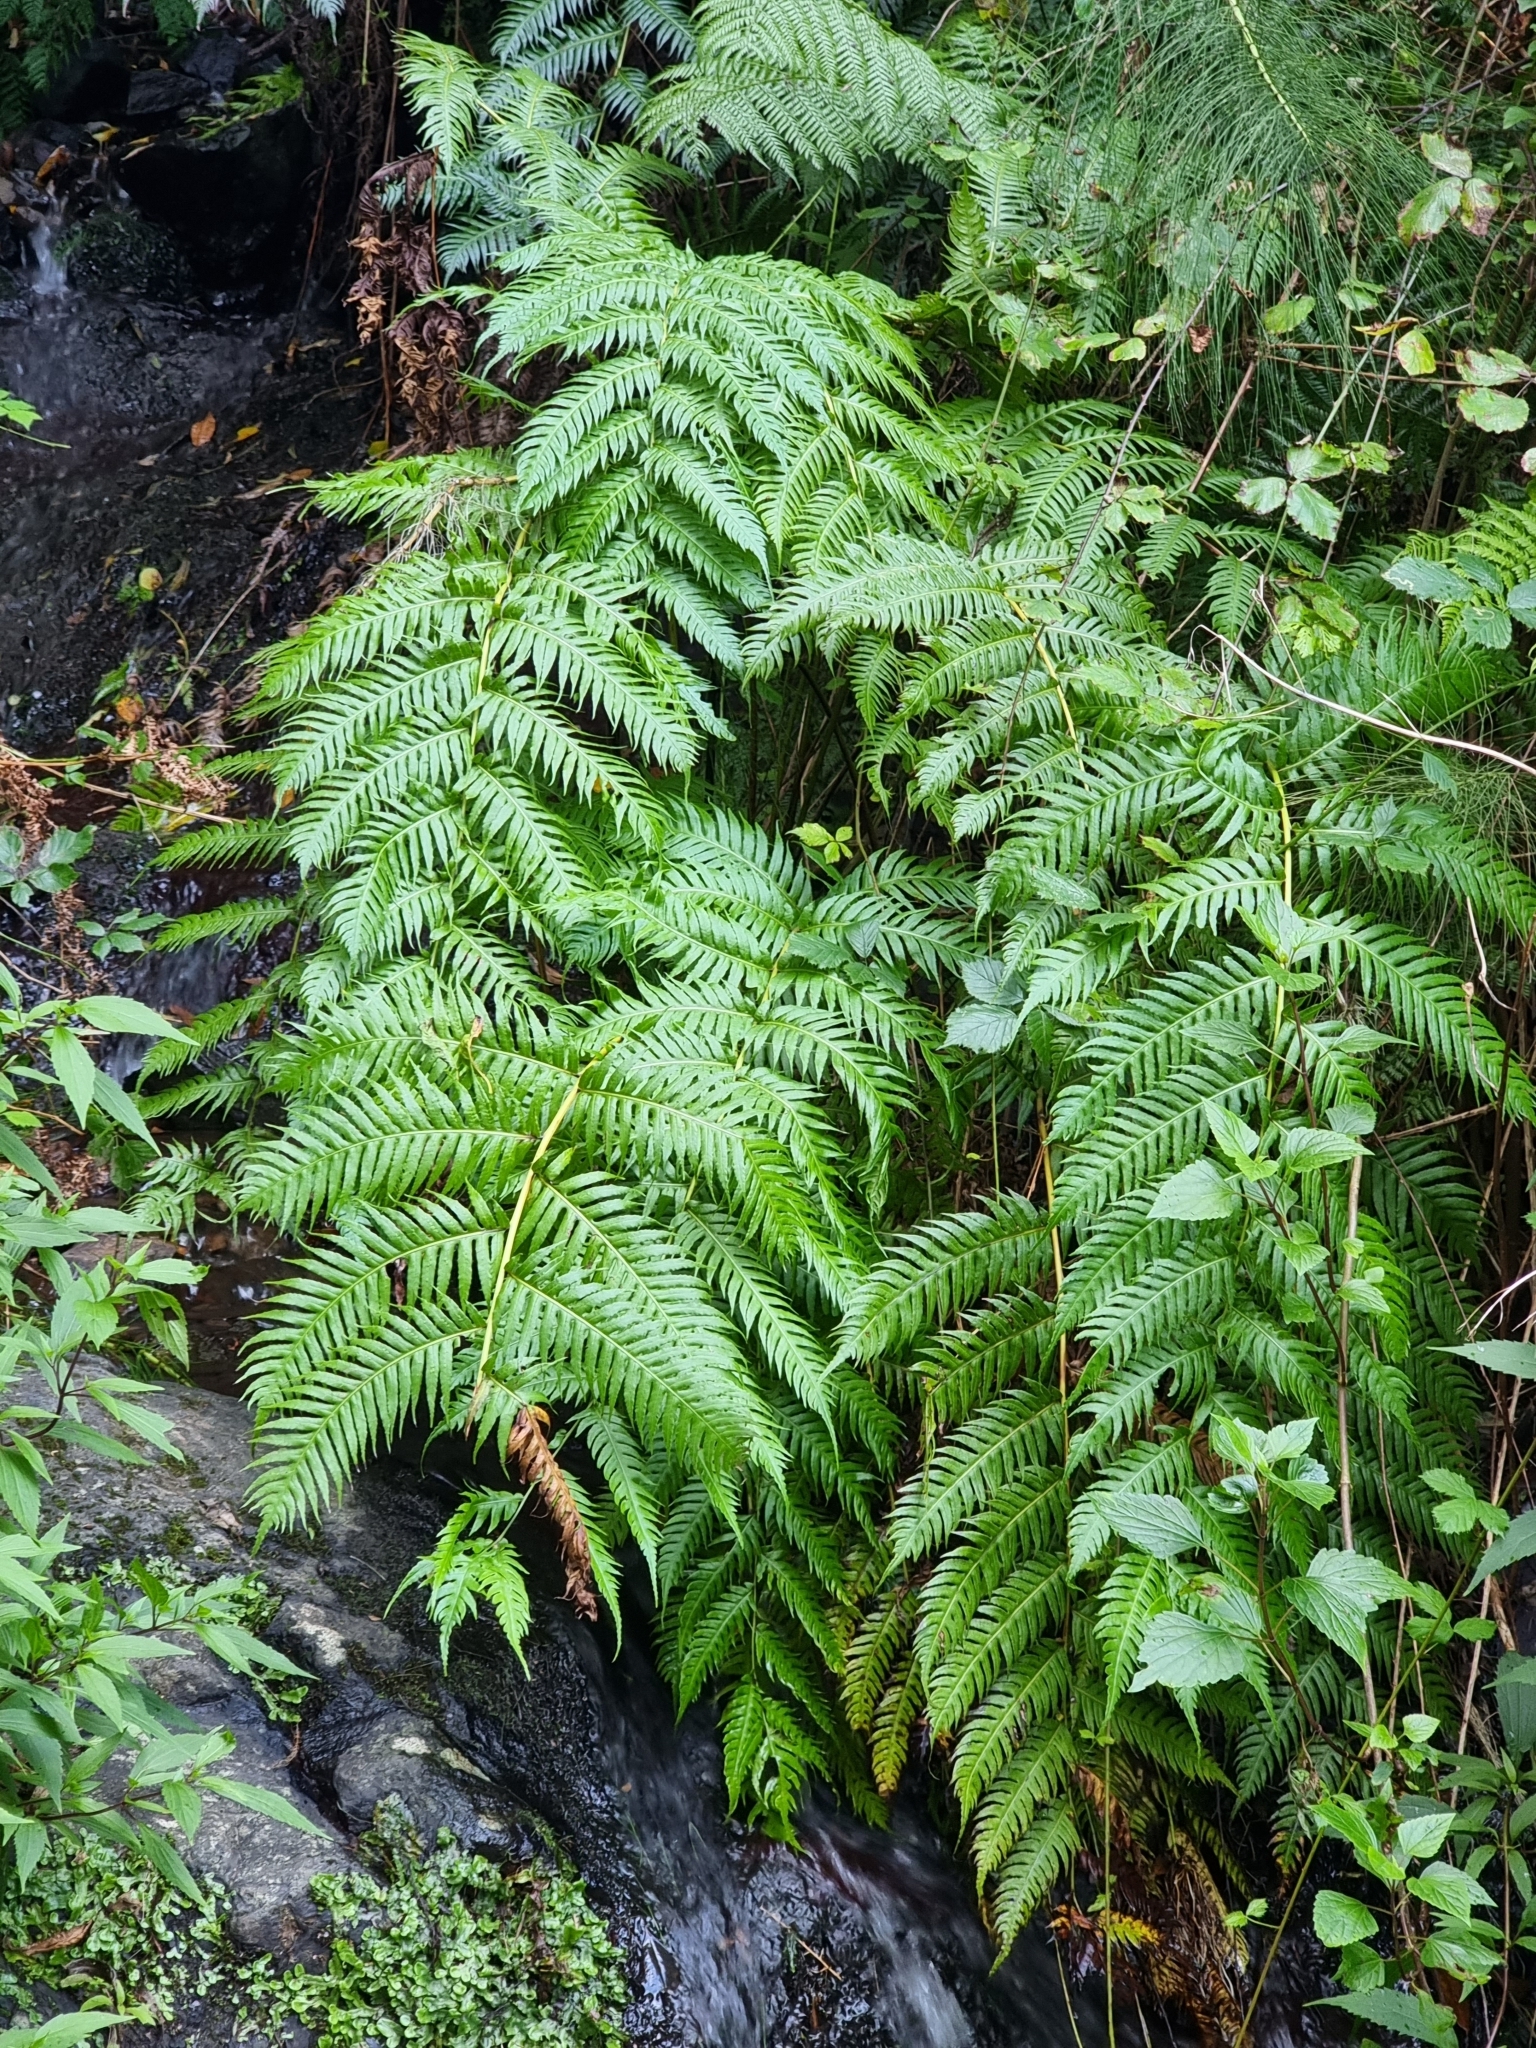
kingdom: Plantae
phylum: Tracheophyta
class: Polypodiopsida
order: Polypodiales
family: Blechnaceae
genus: Woodwardia
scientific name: Woodwardia radicans
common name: Rooting chainfern
